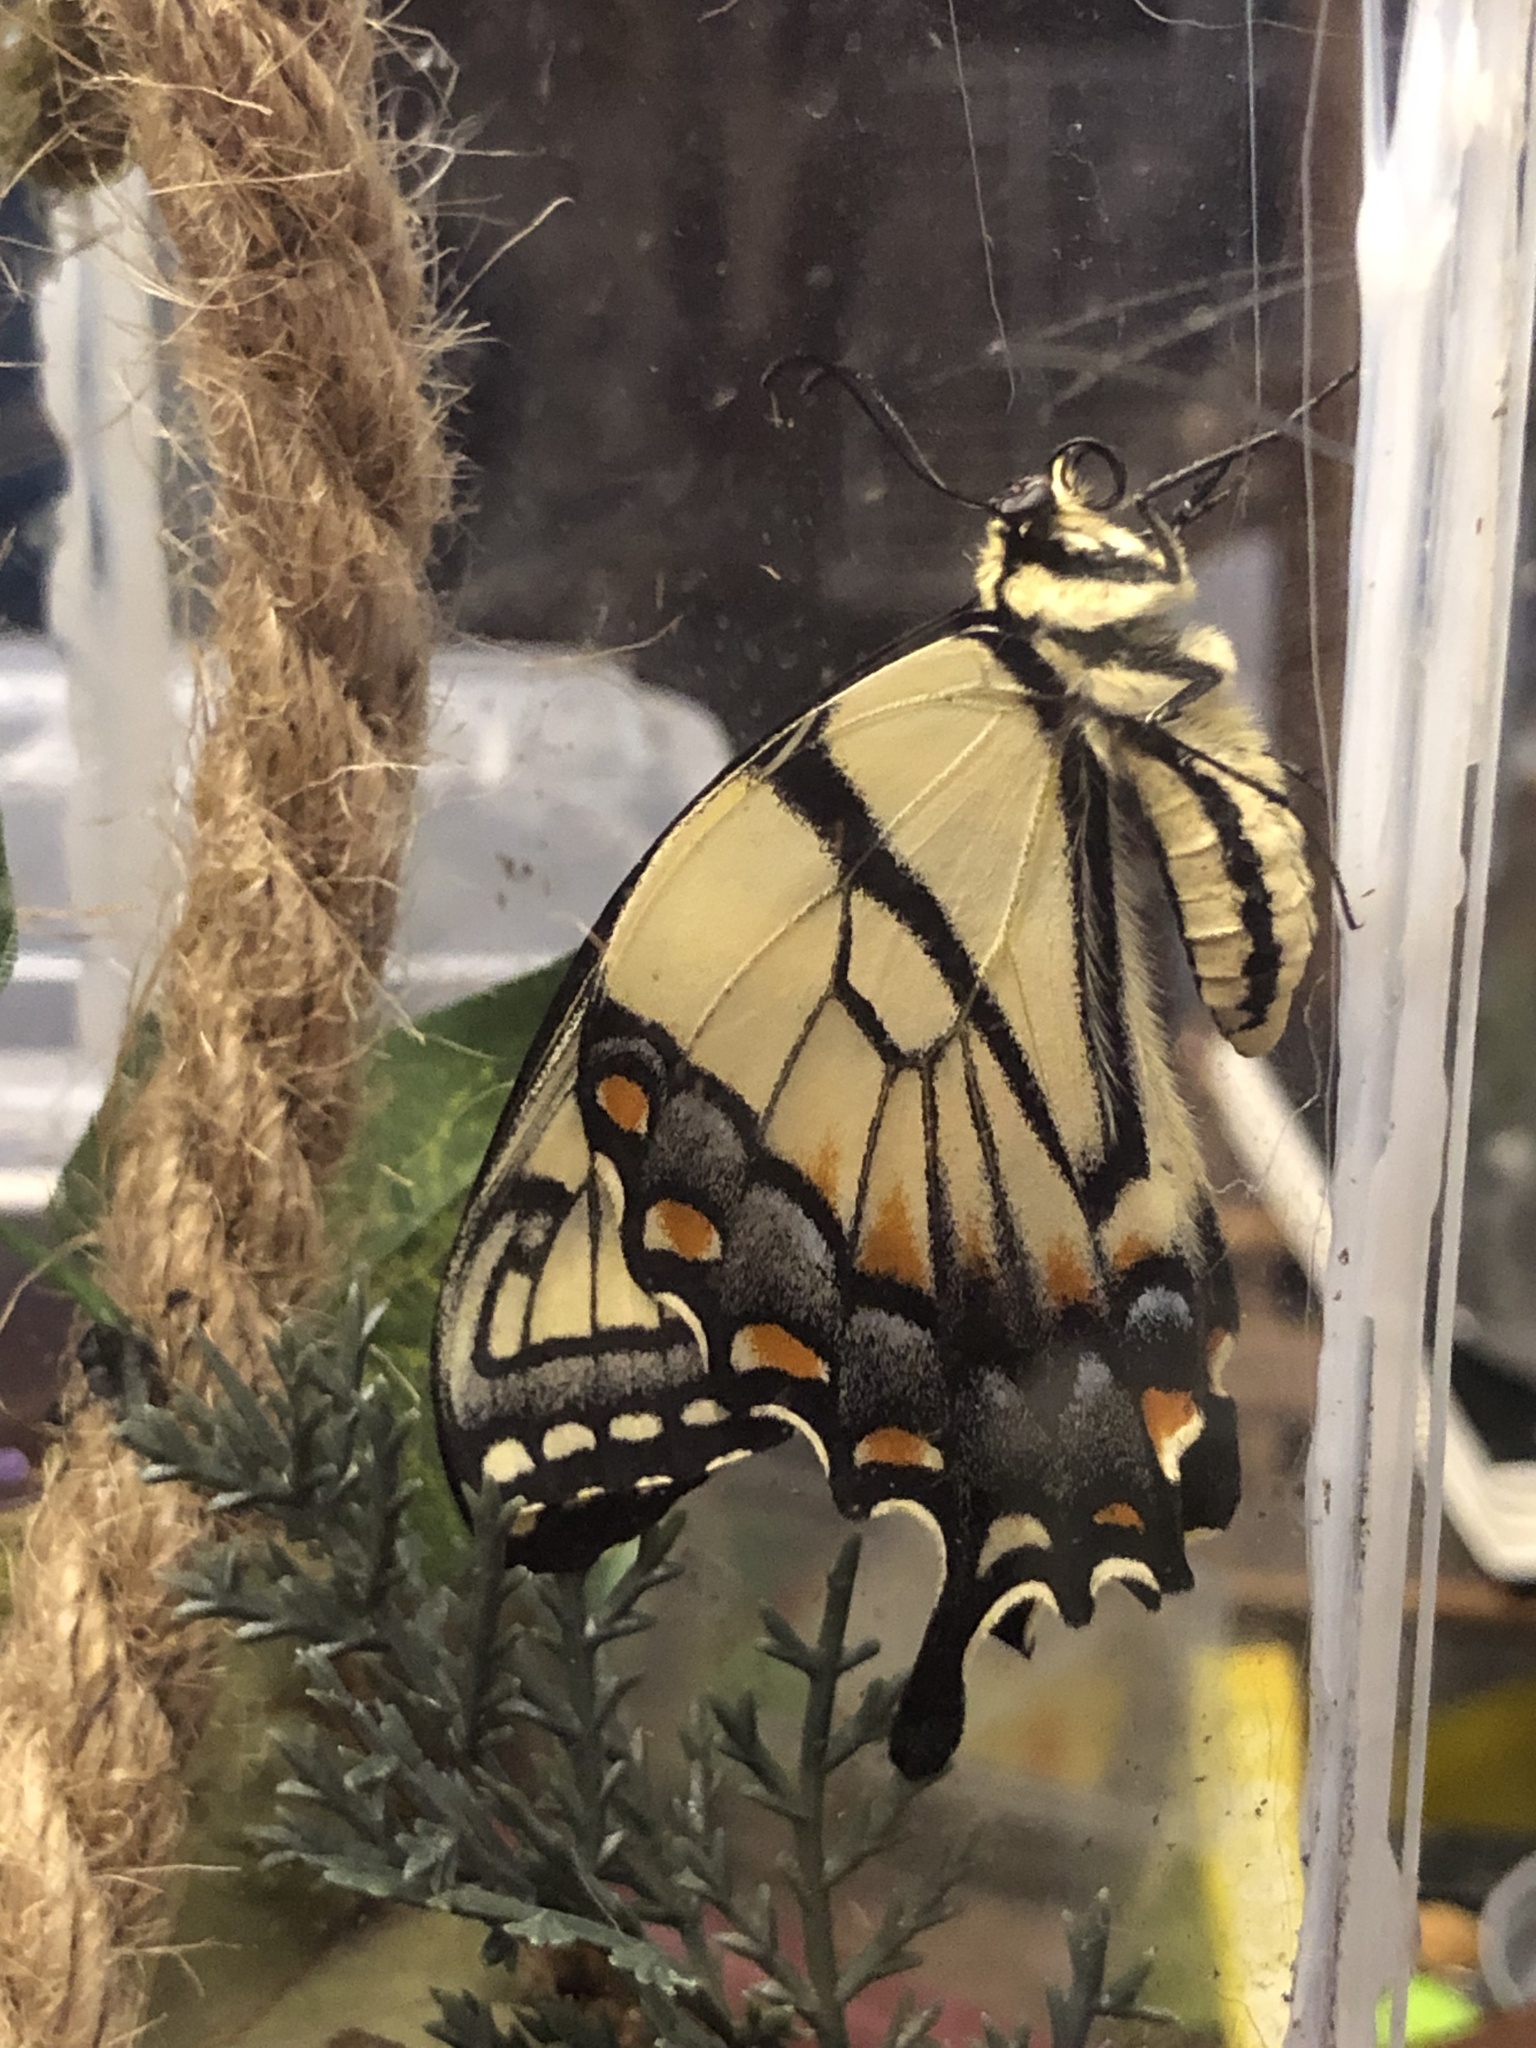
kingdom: Animalia
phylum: Arthropoda
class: Insecta
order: Lepidoptera
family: Papilionidae
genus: Papilio
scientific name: Papilio glaucus
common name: Tiger swallowtail
